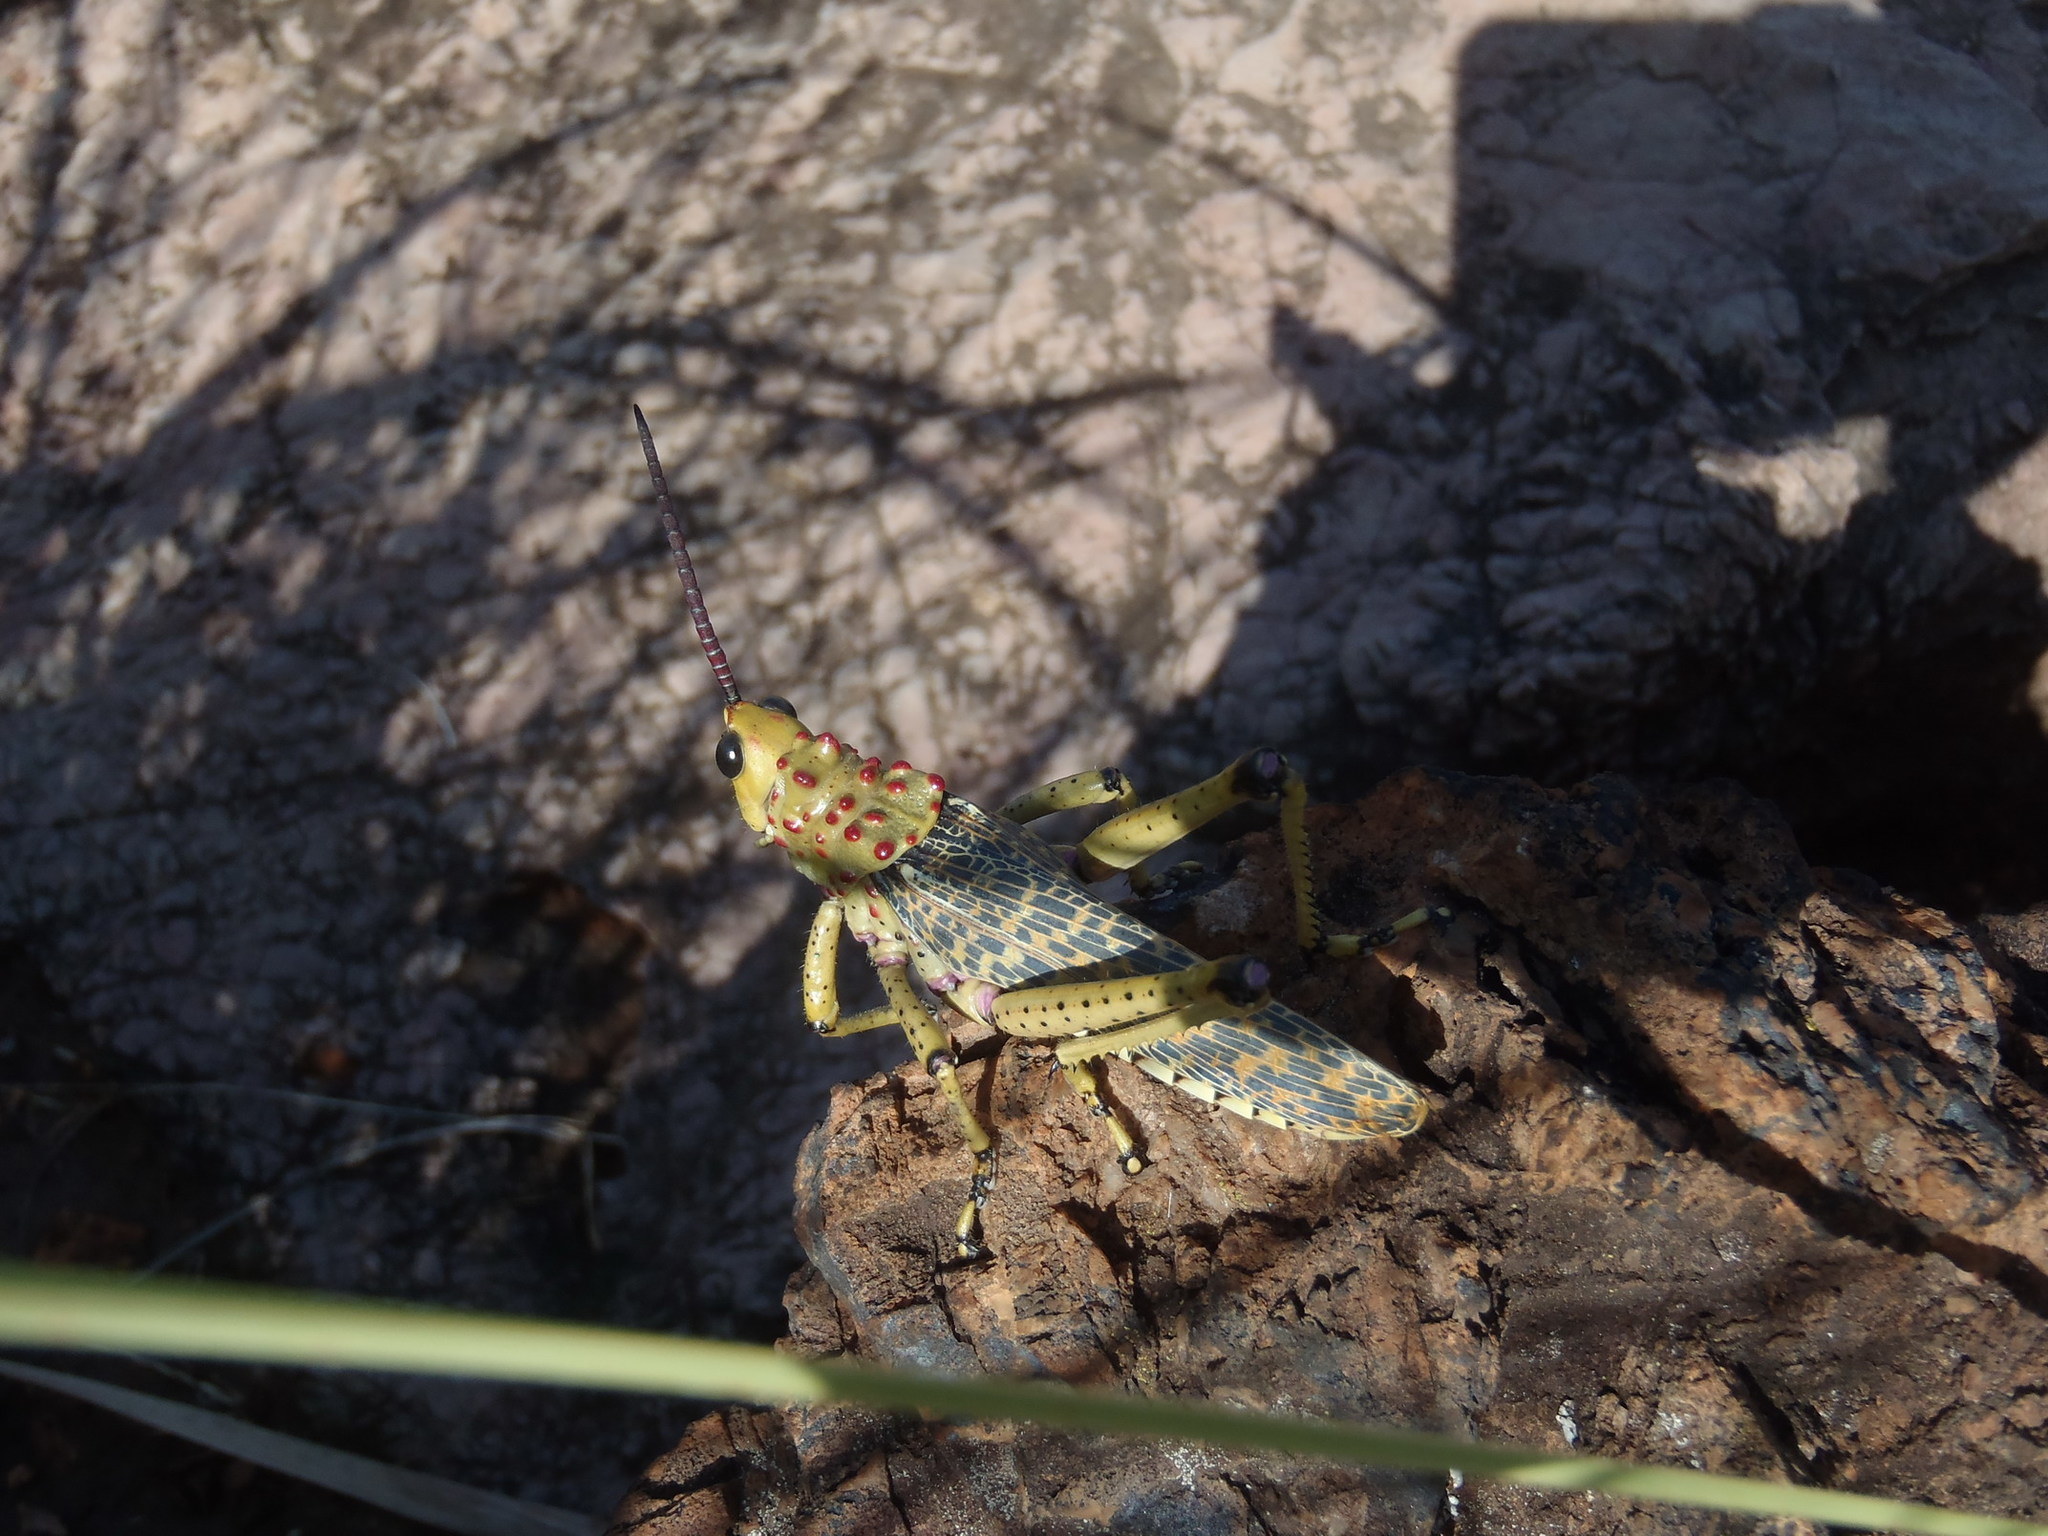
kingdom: Animalia
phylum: Arthropoda
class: Insecta
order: Orthoptera
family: Pyrgomorphidae
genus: Phymateus
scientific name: Phymateus baccatus
